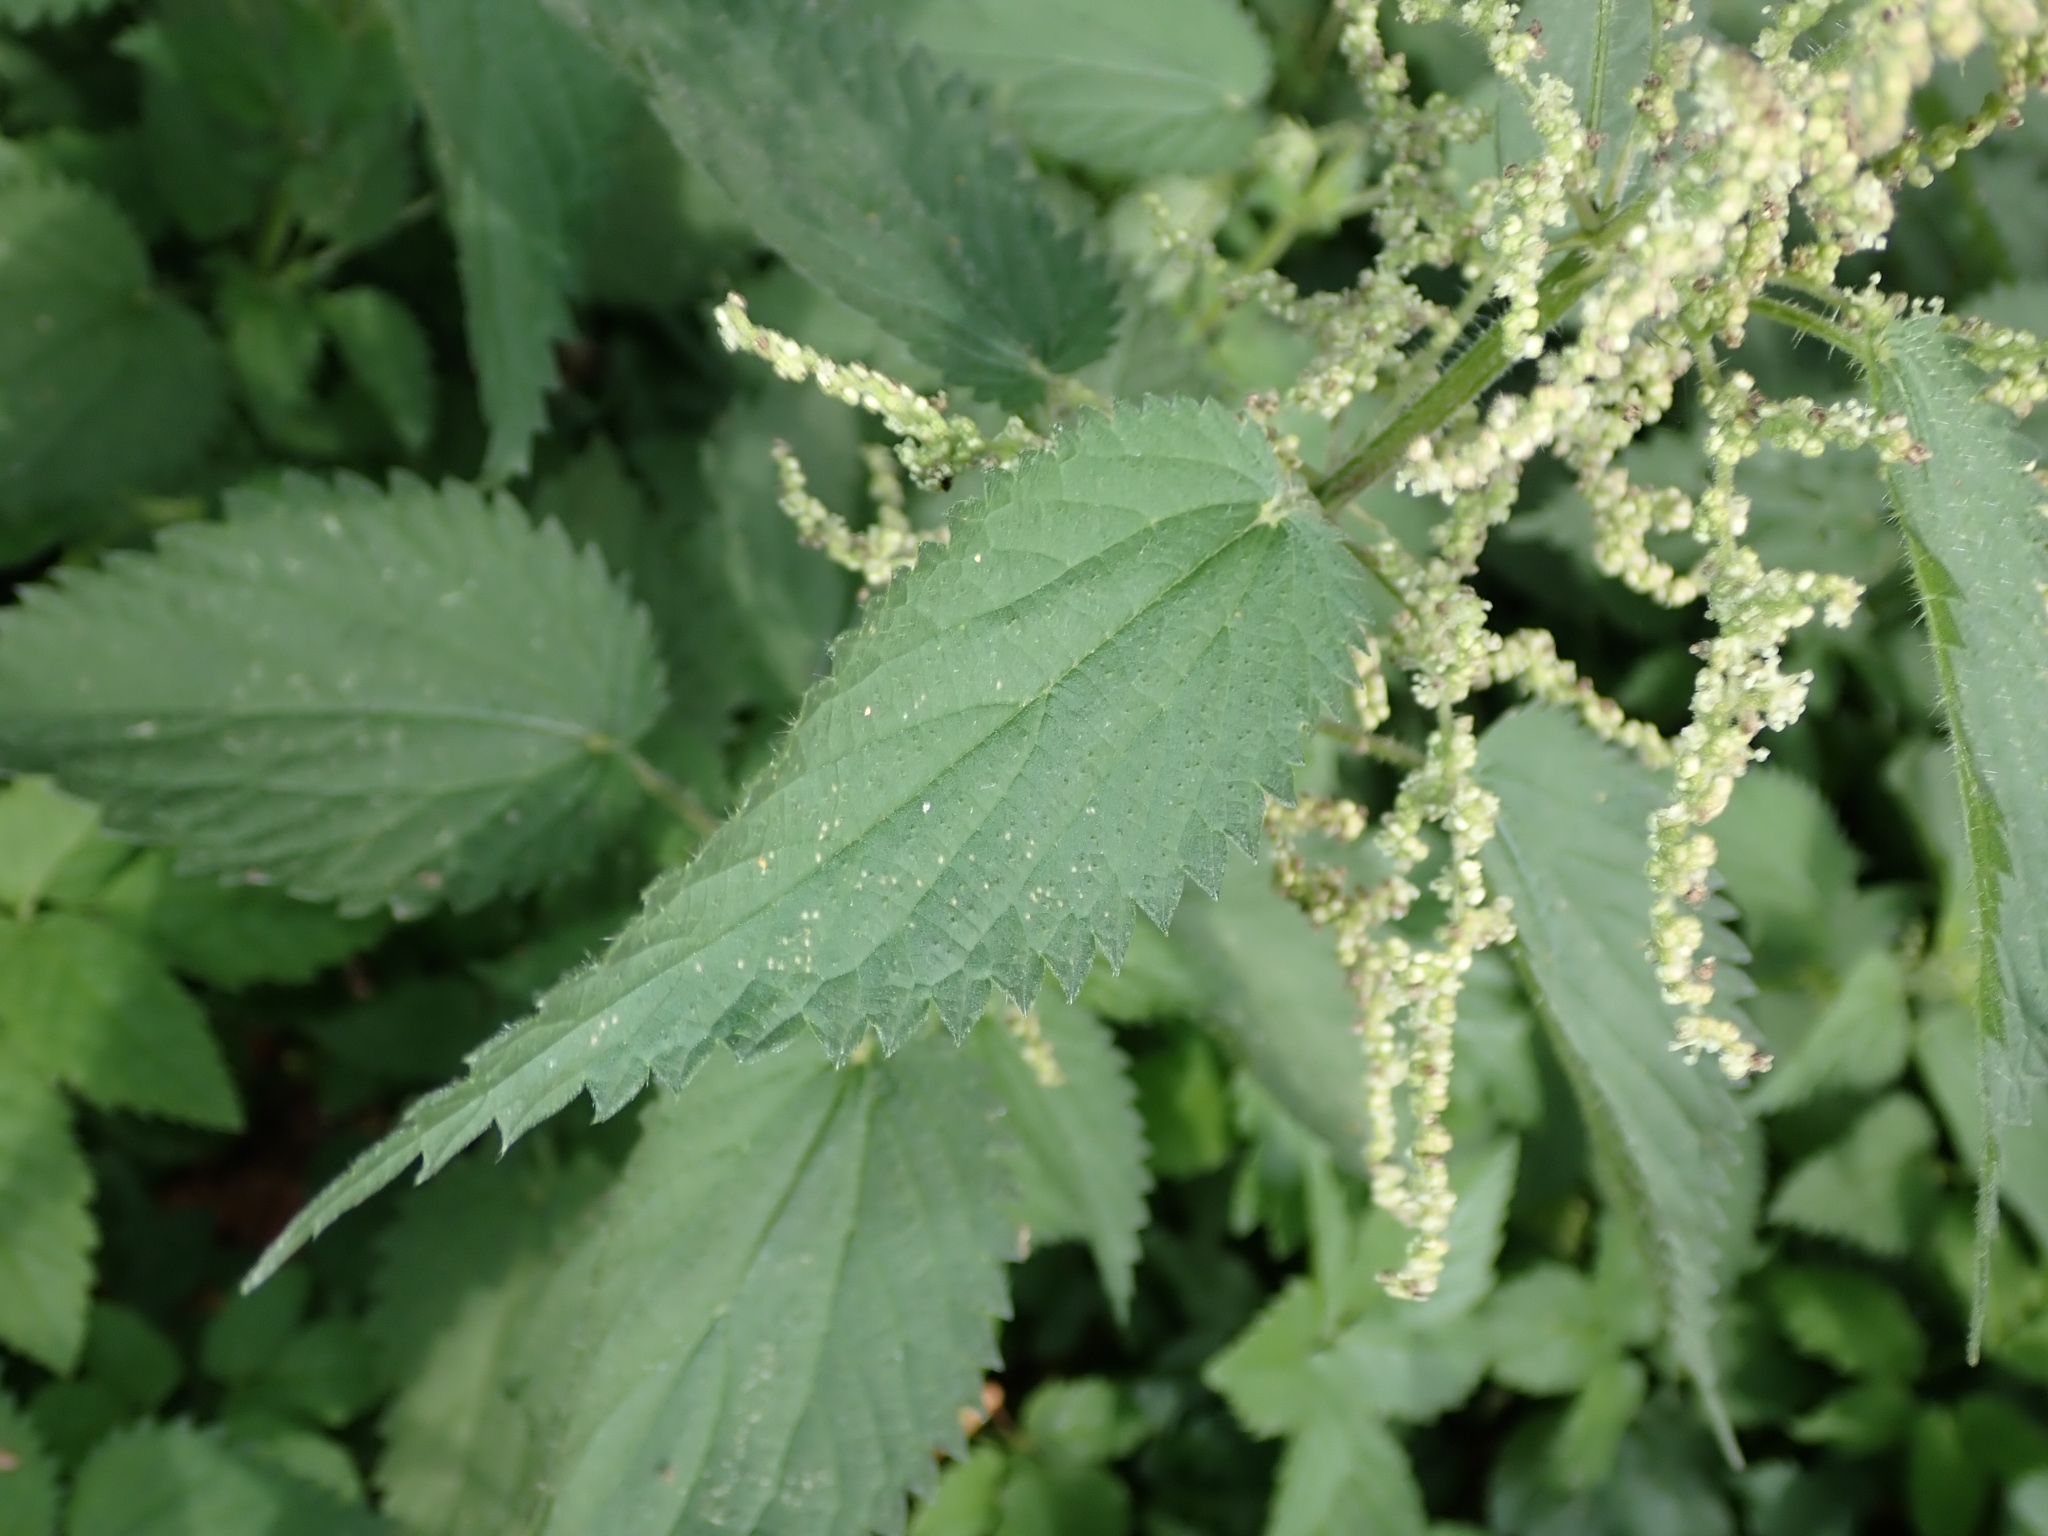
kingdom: Plantae
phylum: Tracheophyta
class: Magnoliopsida
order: Rosales
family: Urticaceae
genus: Urtica
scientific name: Urtica dioica
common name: Common nettle
